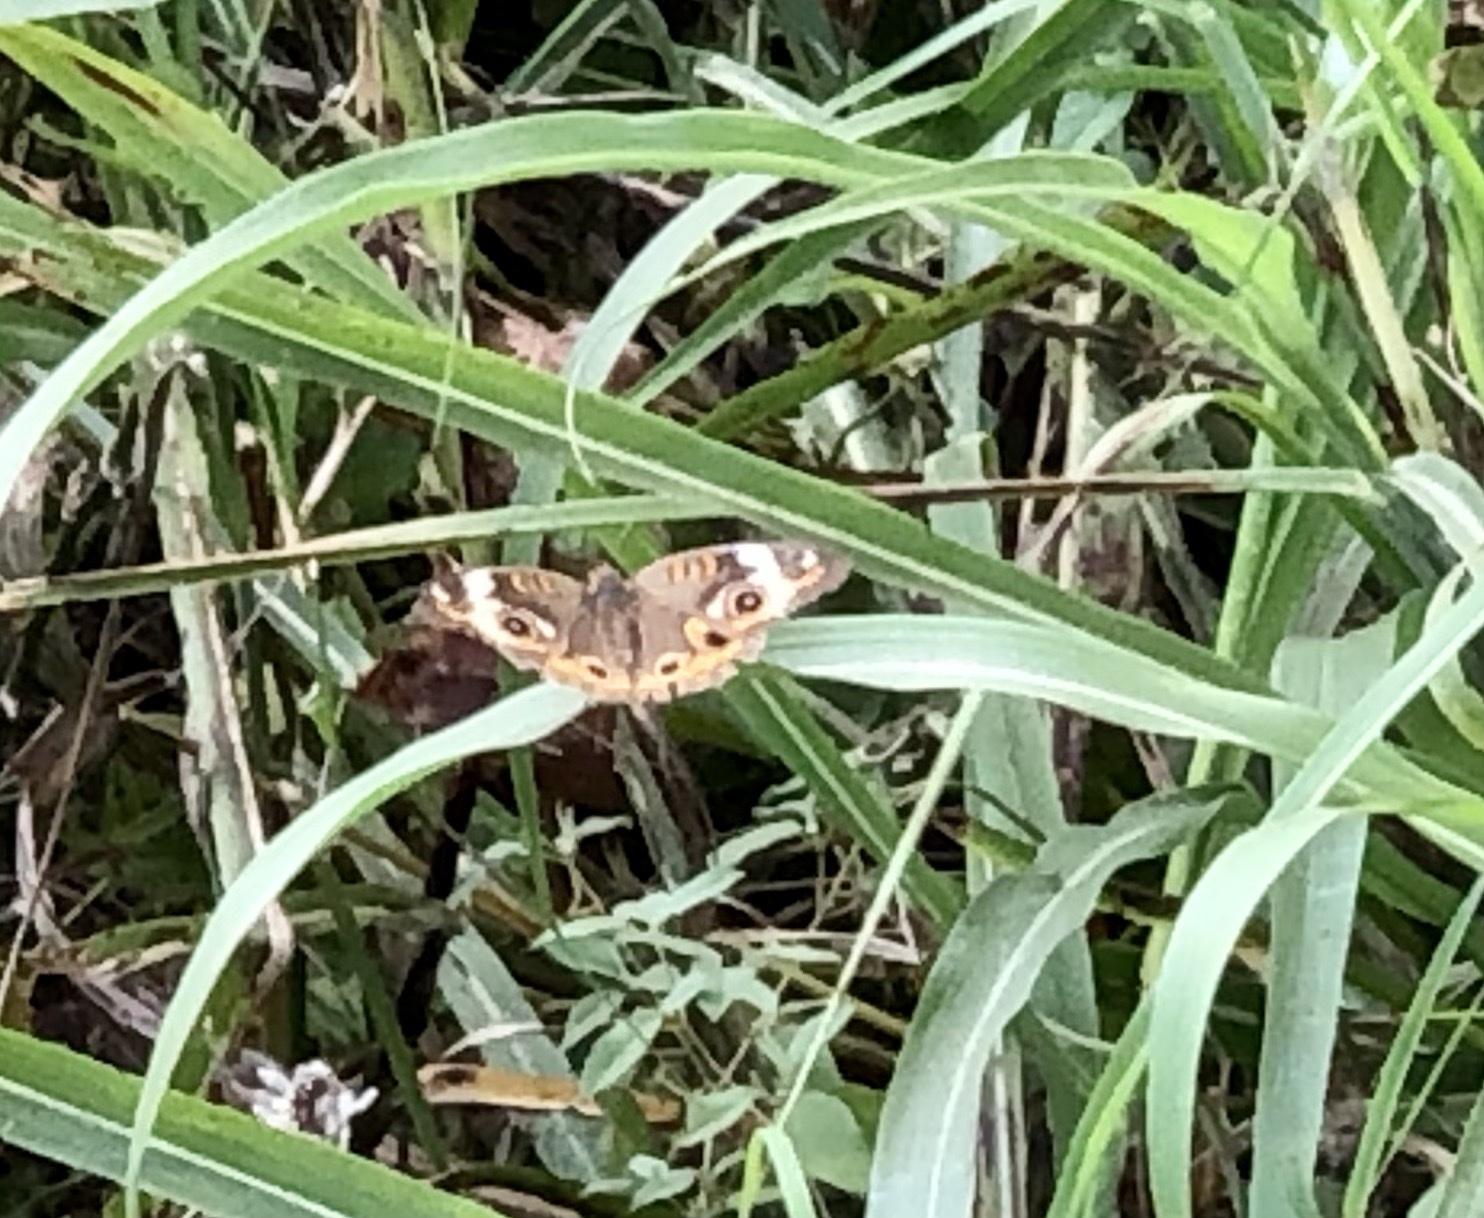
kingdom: Animalia
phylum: Arthropoda
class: Insecta
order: Lepidoptera
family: Nymphalidae
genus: Junonia
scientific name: Junonia coenia
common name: Common buckeye
